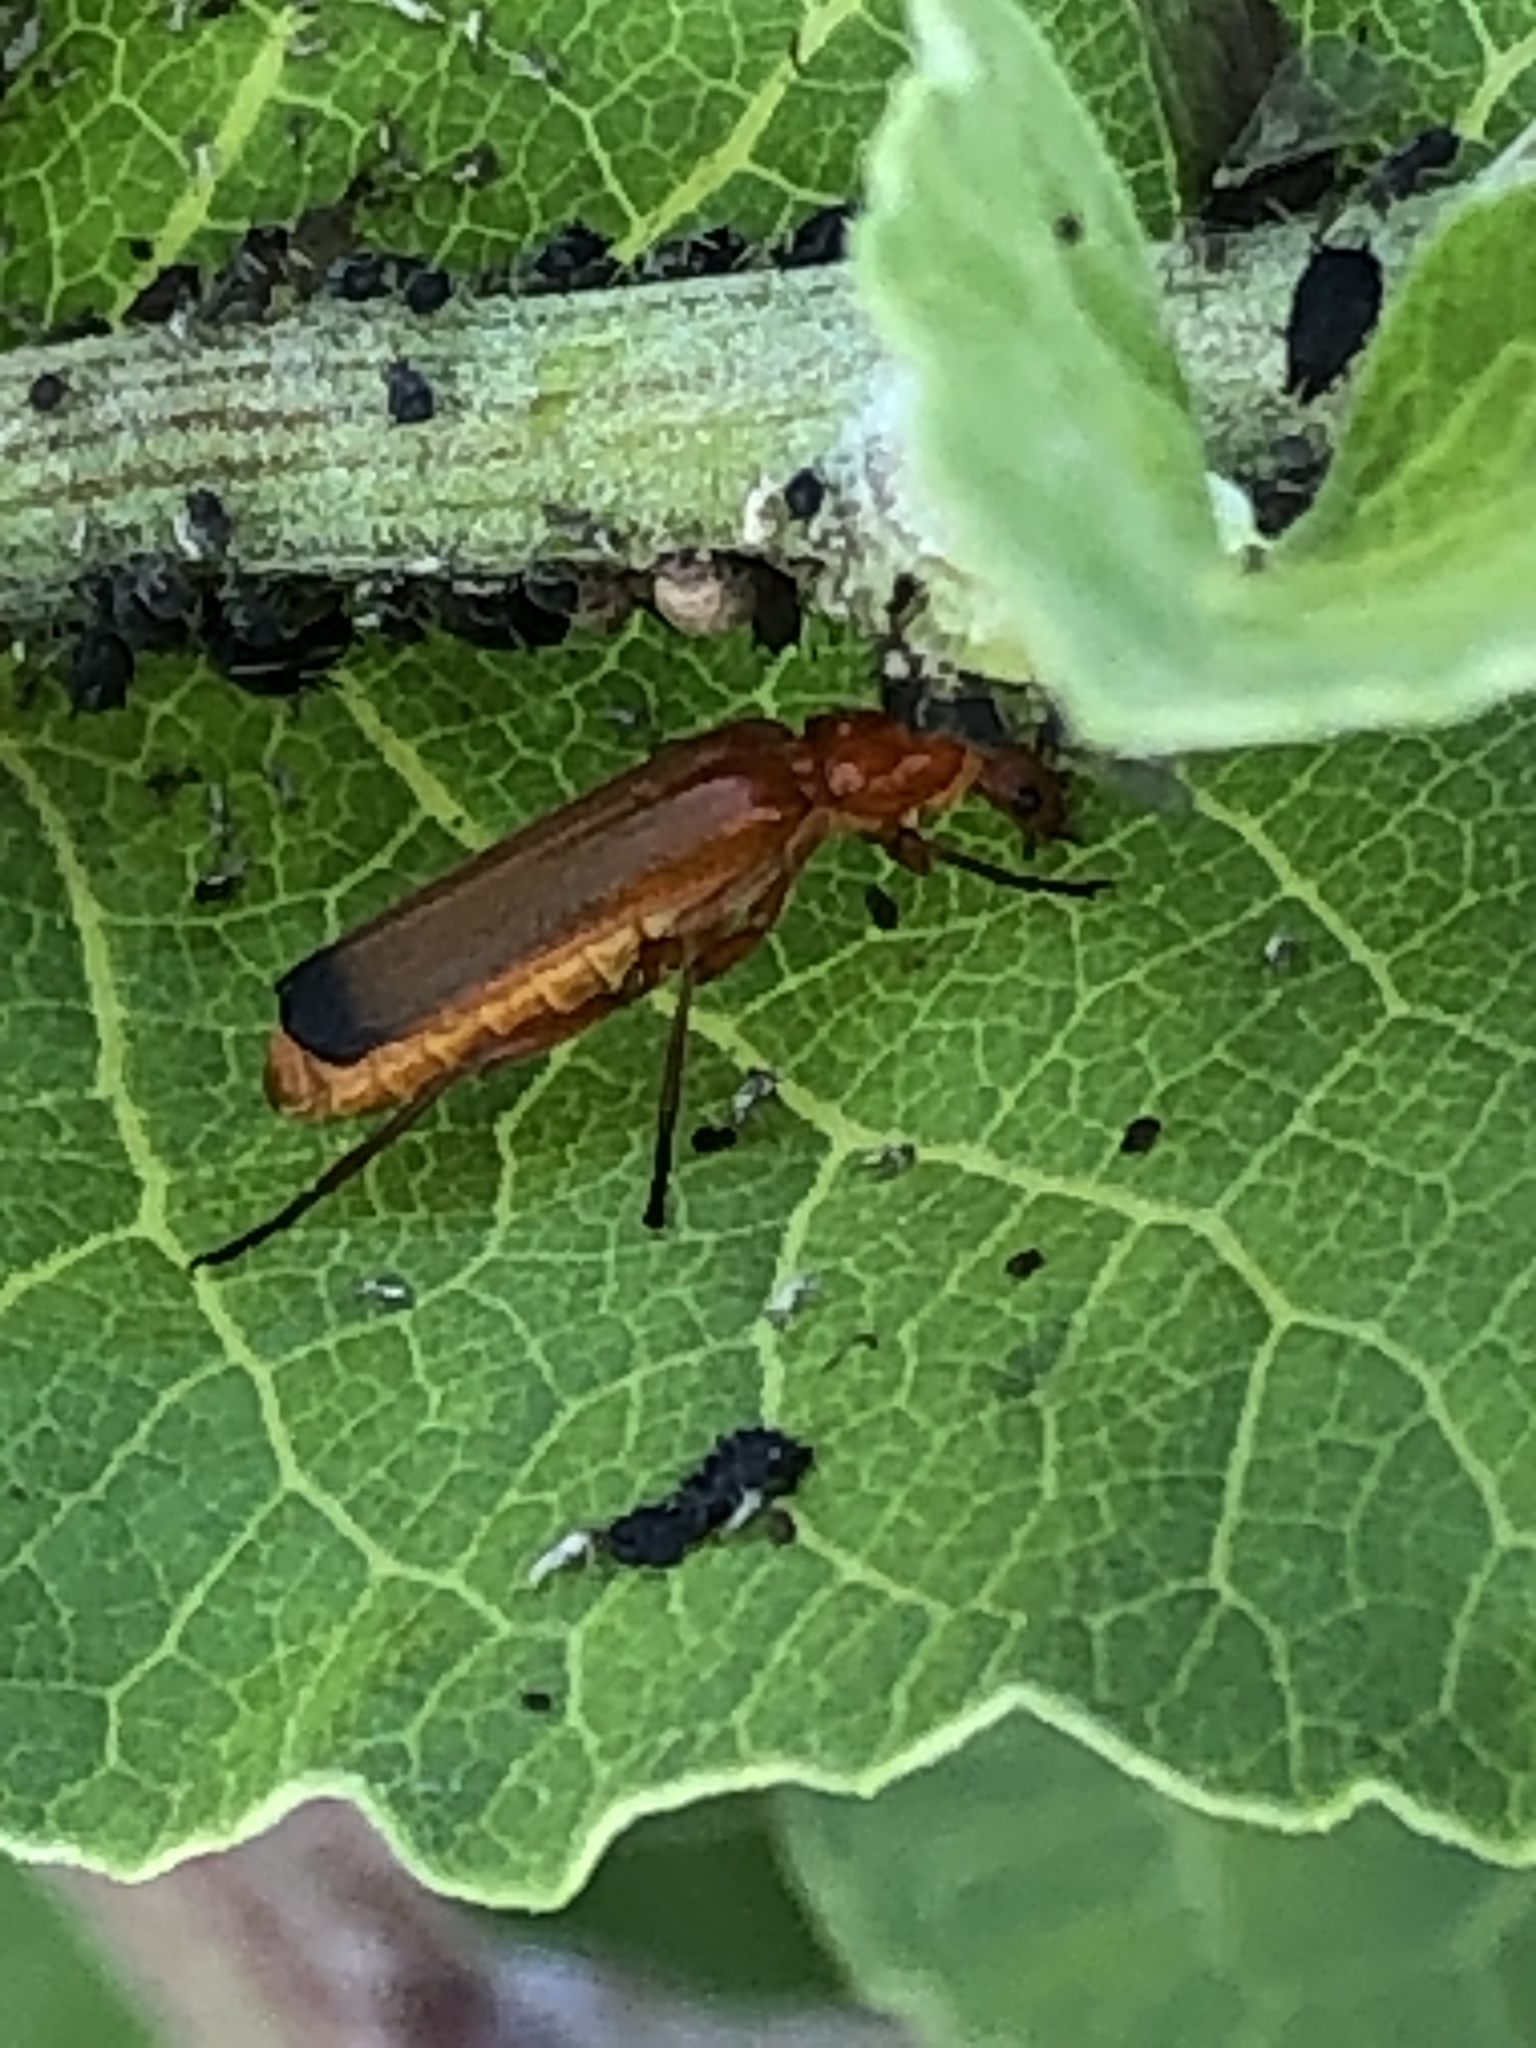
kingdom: Animalia
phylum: Arthropoda
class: Insecta
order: Coleoptera
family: Cantharidae
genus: Rhagonycha
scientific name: Rhagonycha fulva
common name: Common red soldier beetle
